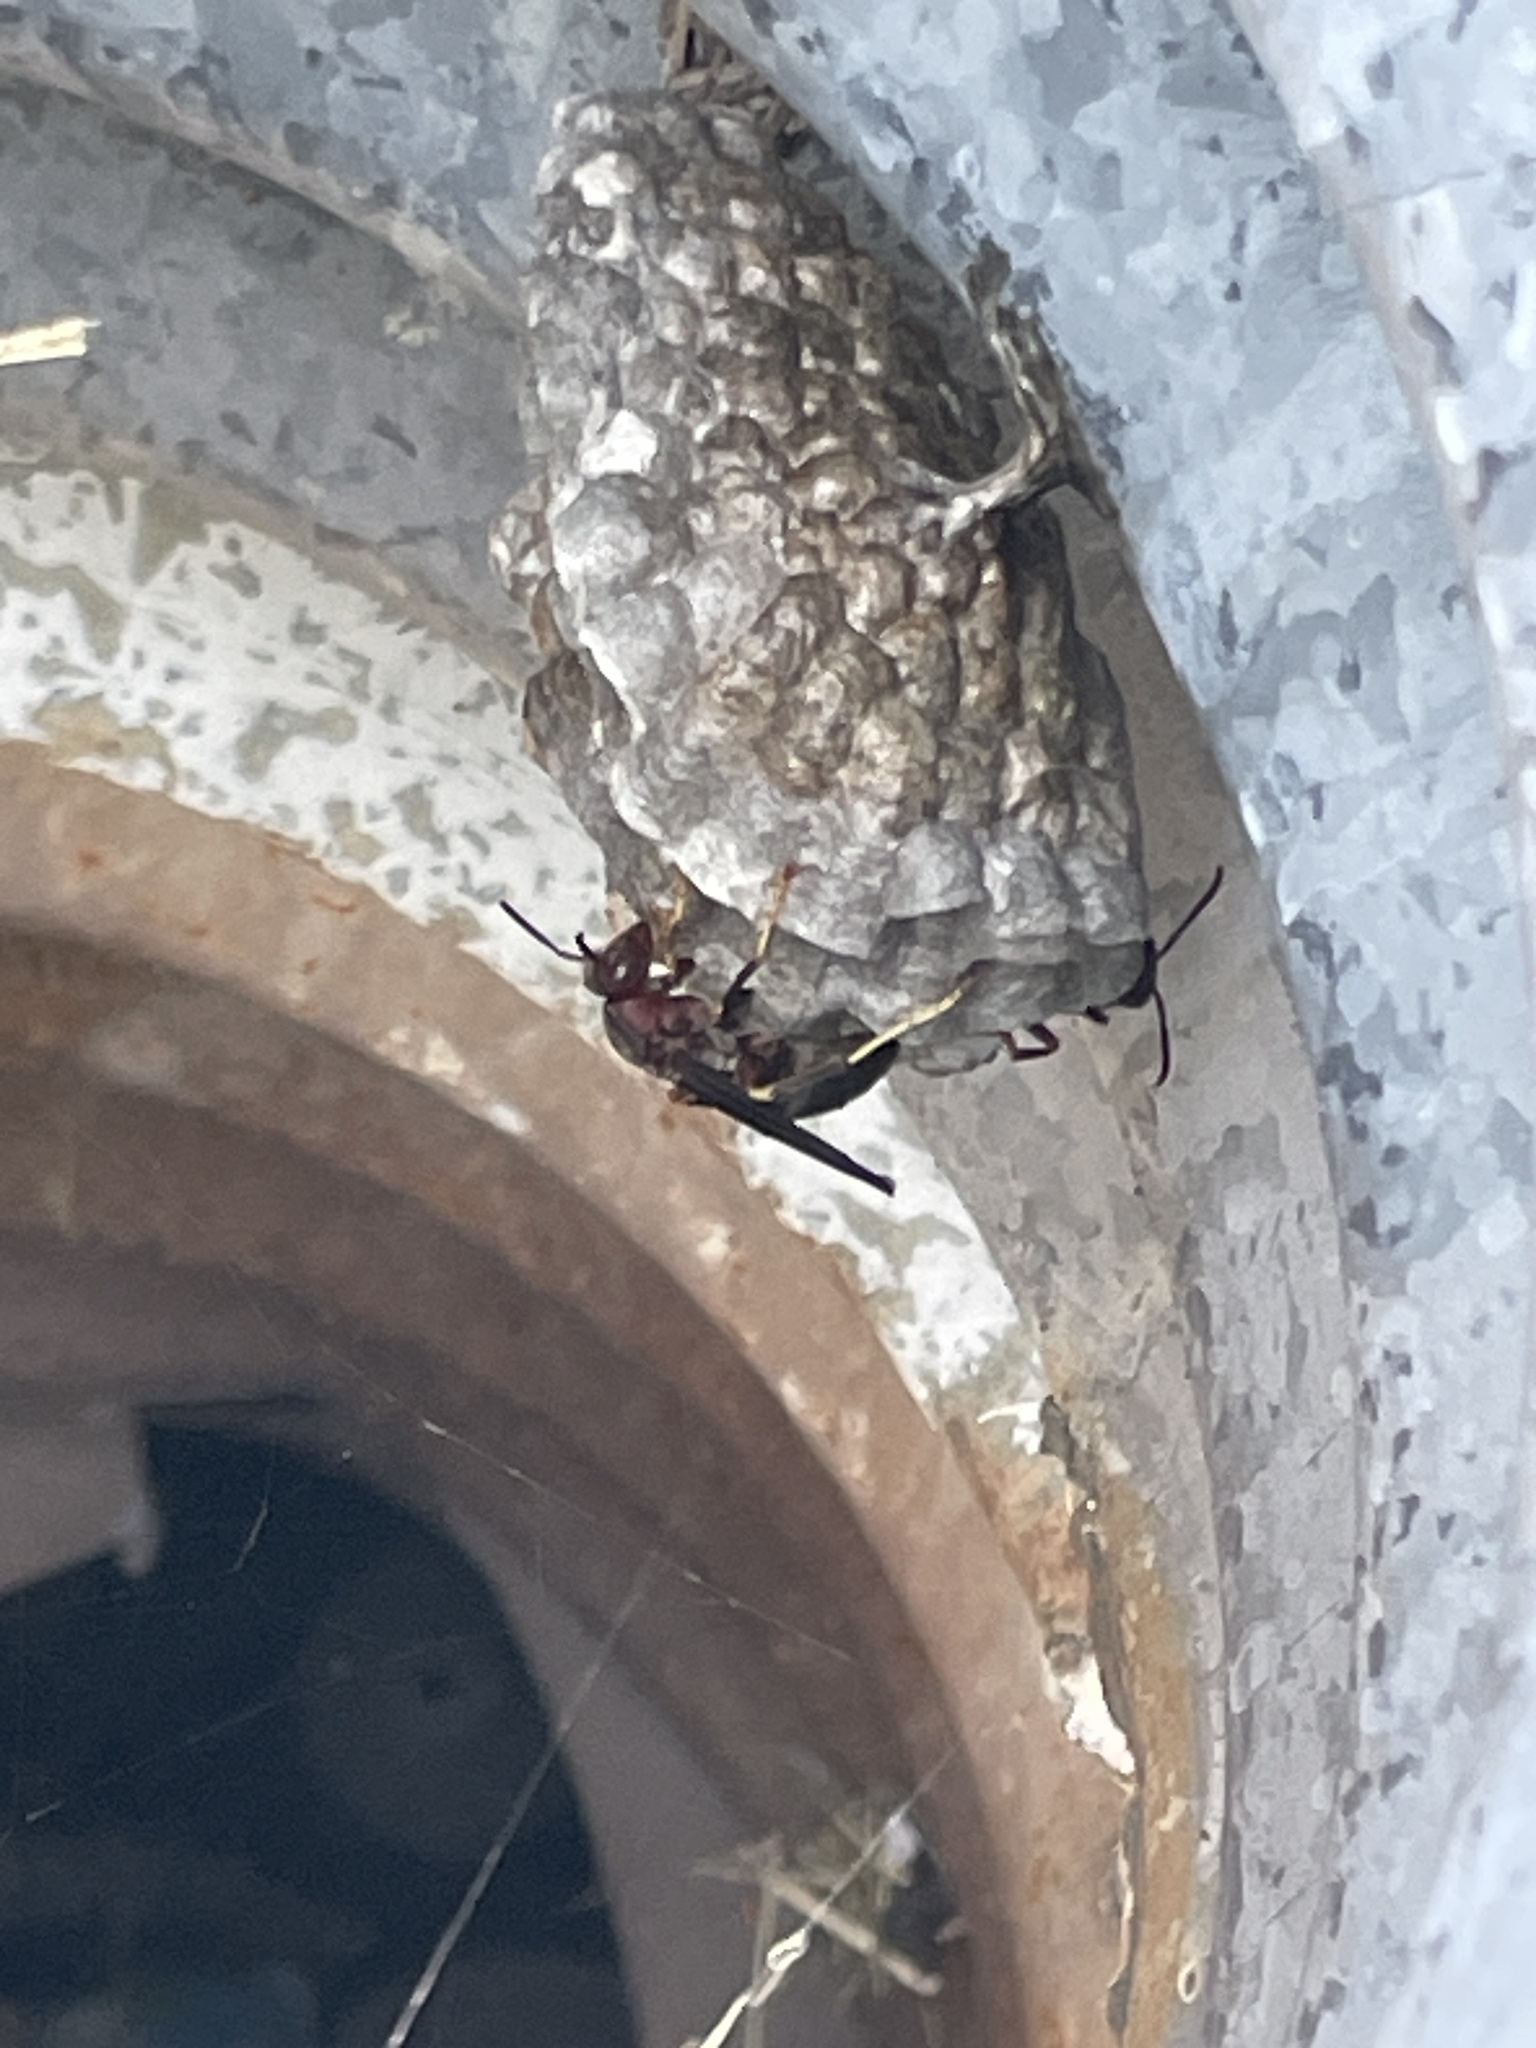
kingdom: Animalia
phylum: Arthropoda
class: Insecta
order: Hymenoptera
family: Eumenidae
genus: Polistes
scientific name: Polistes metricus
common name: Metric paper wasp
